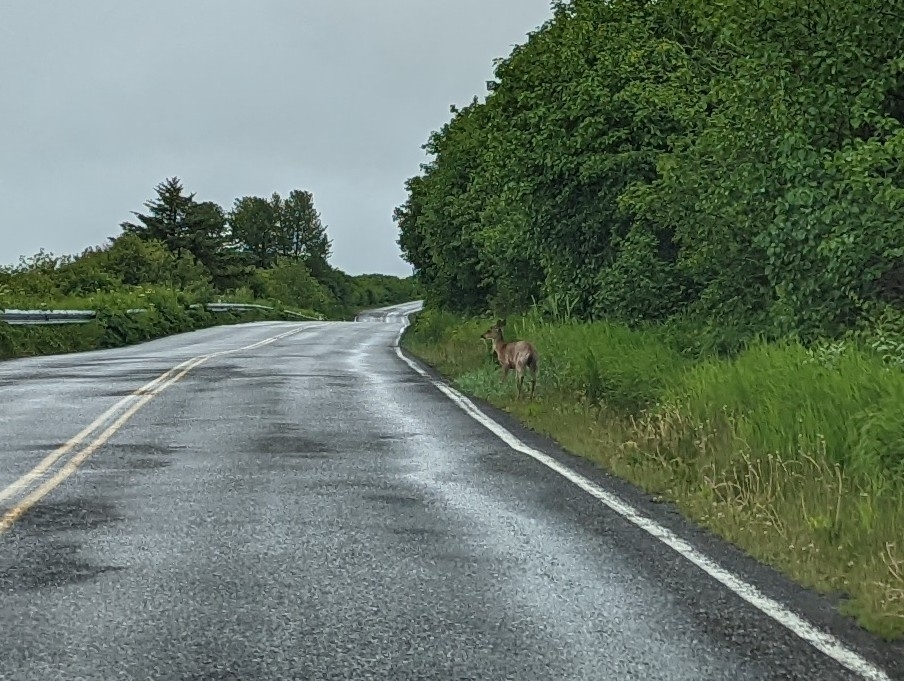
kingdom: Animalia
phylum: Chordata
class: Mammalia
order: Artiodactyla
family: Cervidae
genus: Odocoileus
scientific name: Odocoileus hemionus
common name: Mule deer
